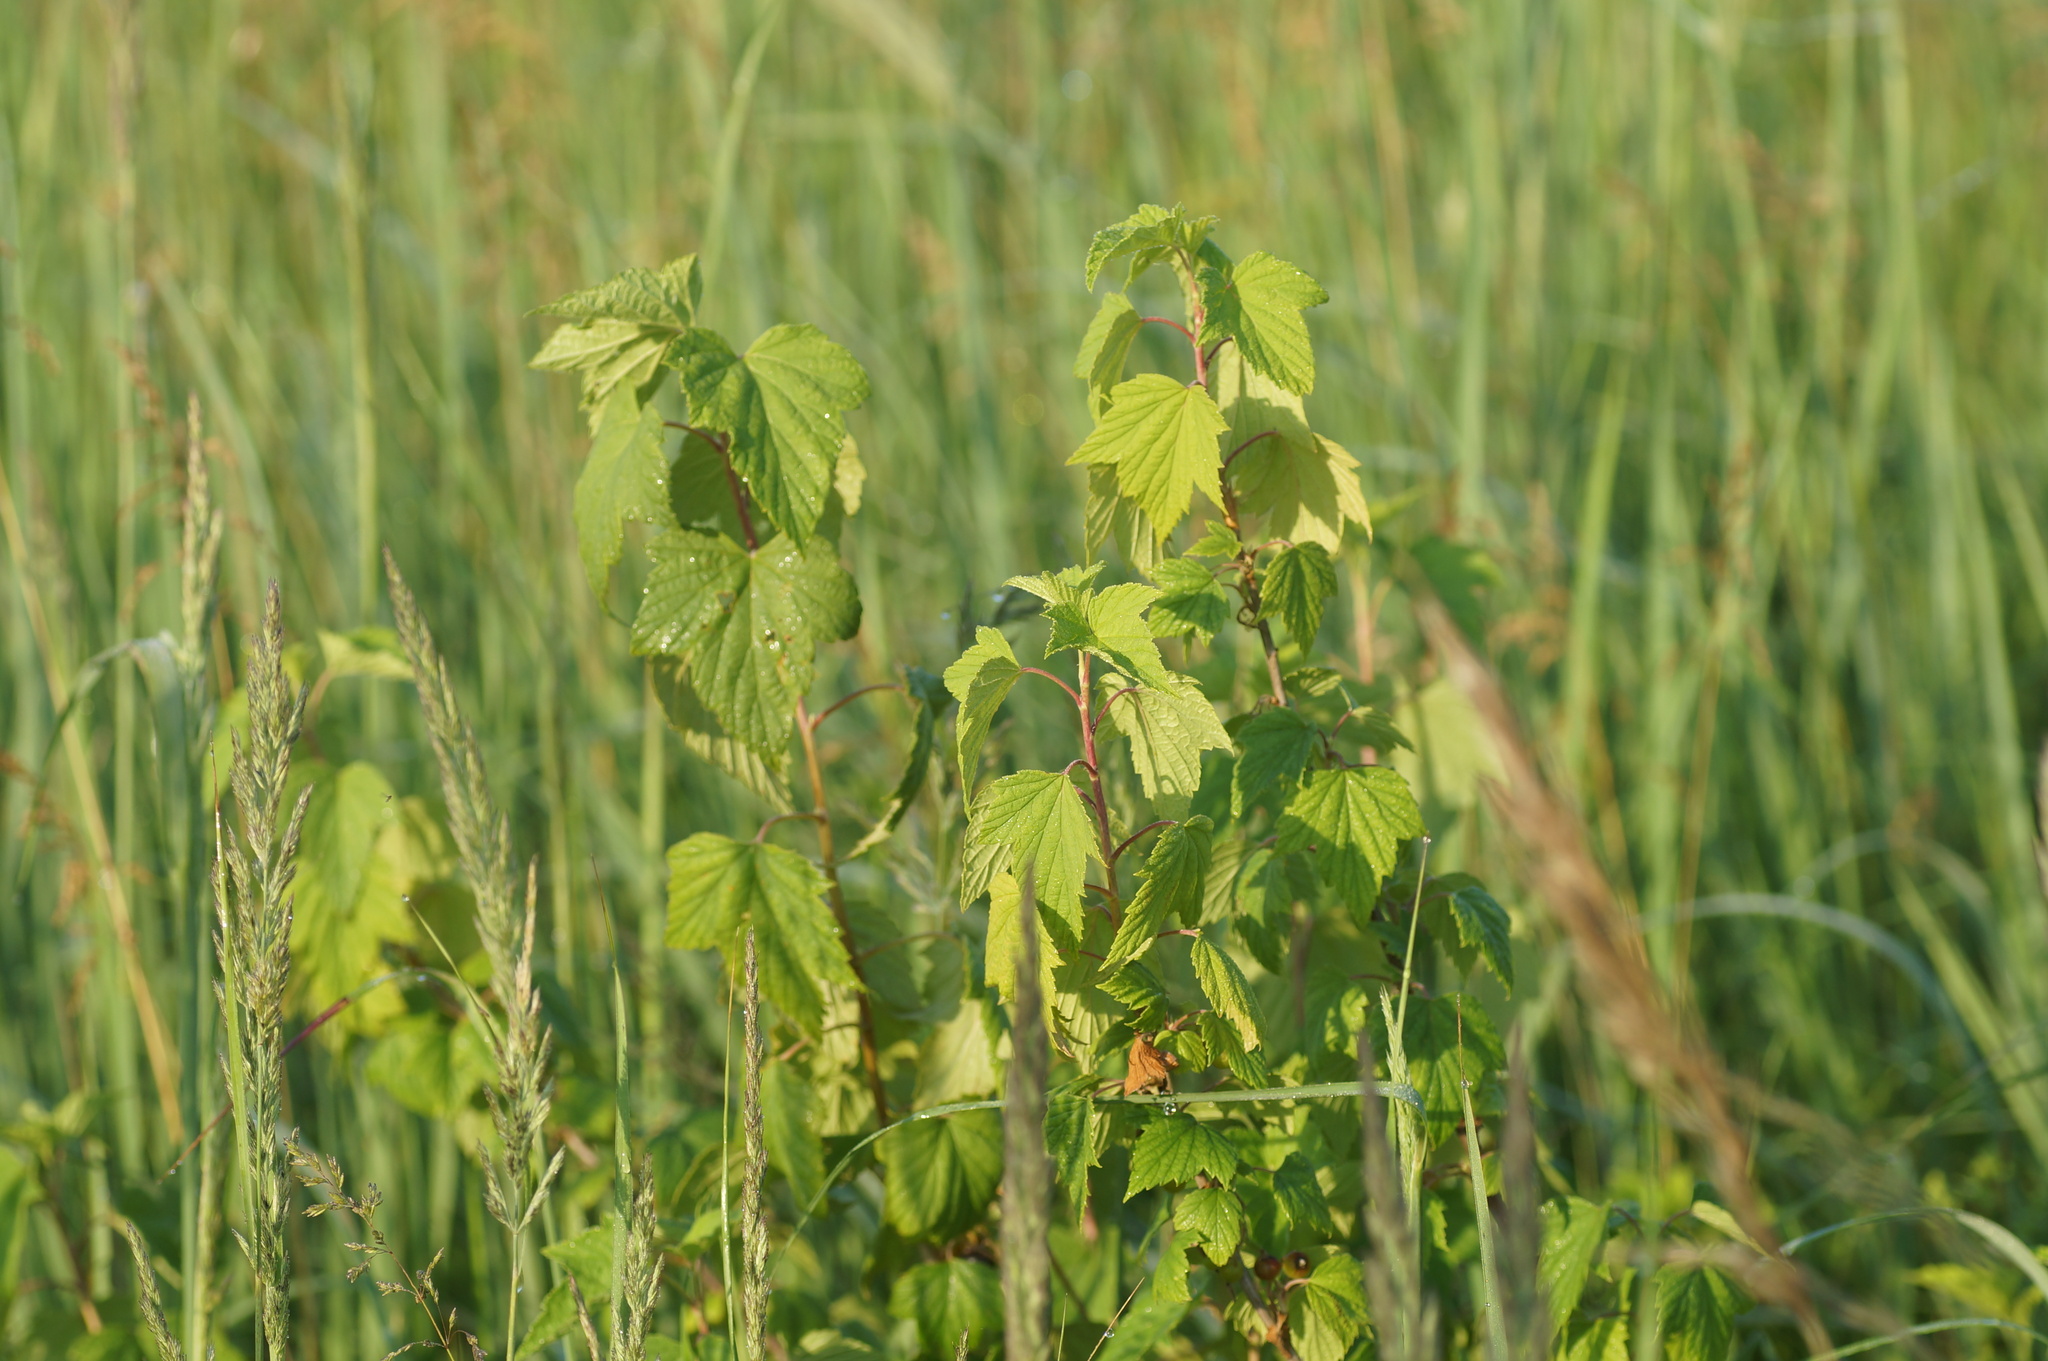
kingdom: Plantae
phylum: Tracheophyta
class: Magnoliopsida
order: Saxifragales
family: Grossulariaceae
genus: Ribes
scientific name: Ribes nigrum
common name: Black currant
